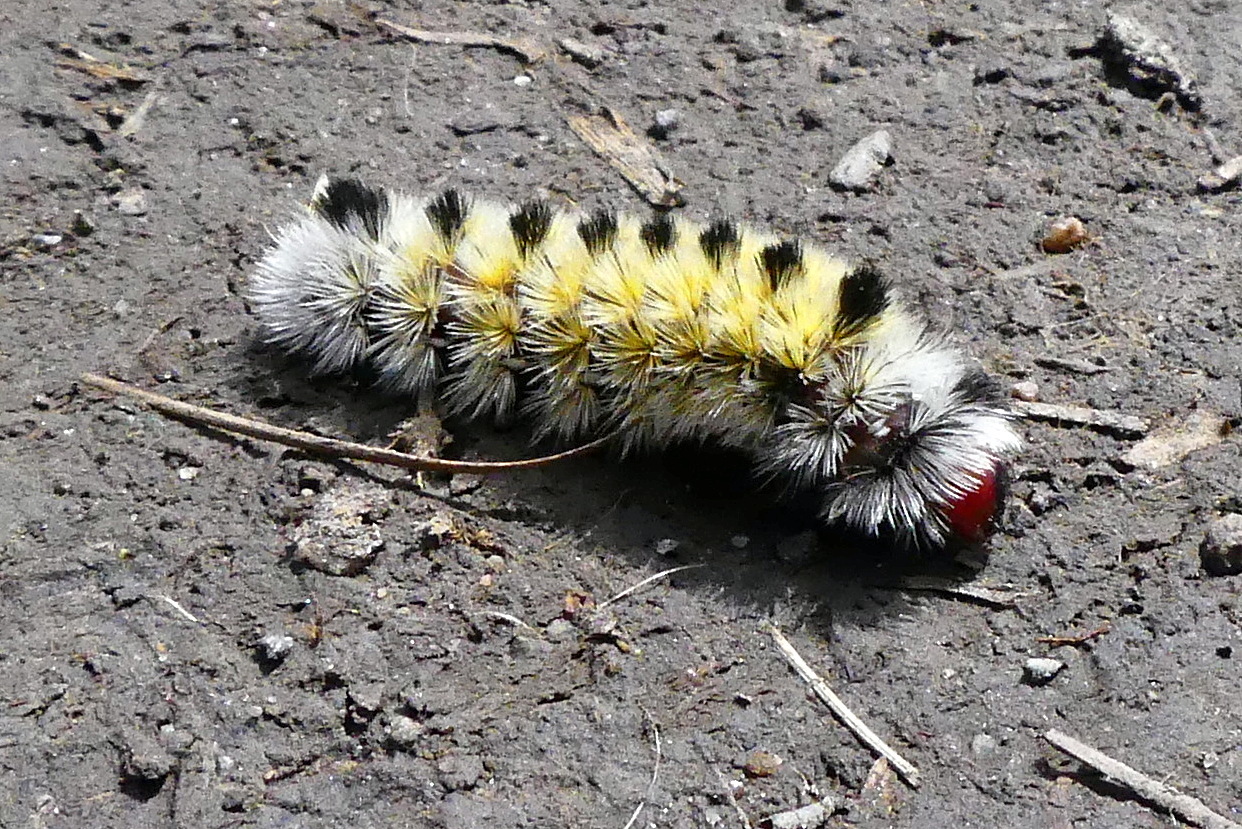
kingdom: Animalia
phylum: Arthropoda
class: Insecta
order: Lepidoptera
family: Erebidae
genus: Ctenucha
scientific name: Ctenucha virginica
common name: Virginia ctenucha moth
